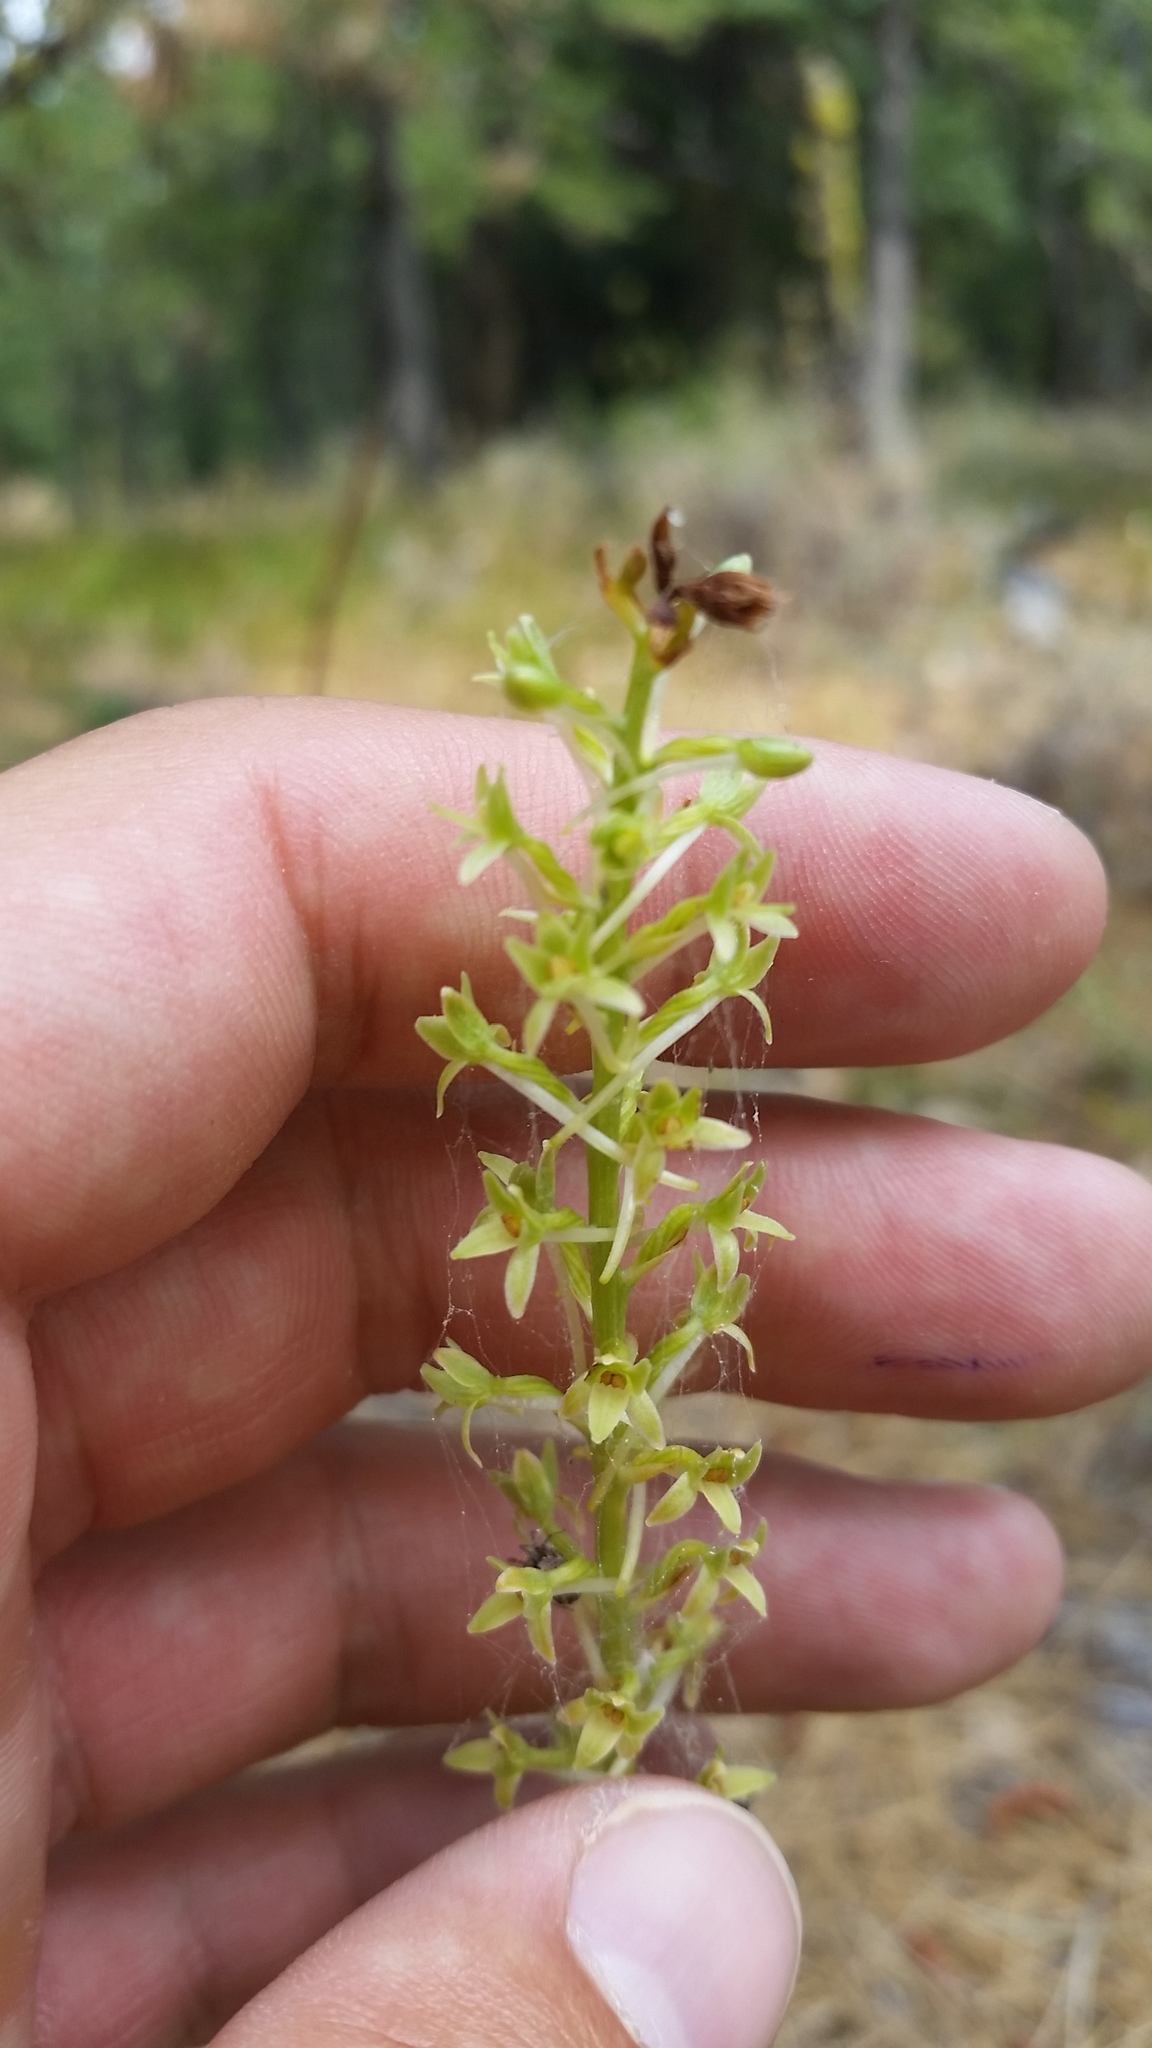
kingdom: Plantae
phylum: Tracheophyta
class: Liliopsida
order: Asparagales
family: Orchidaceae
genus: Platanthera
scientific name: Platanthera elongata
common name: Dense-flowered rein orchid
